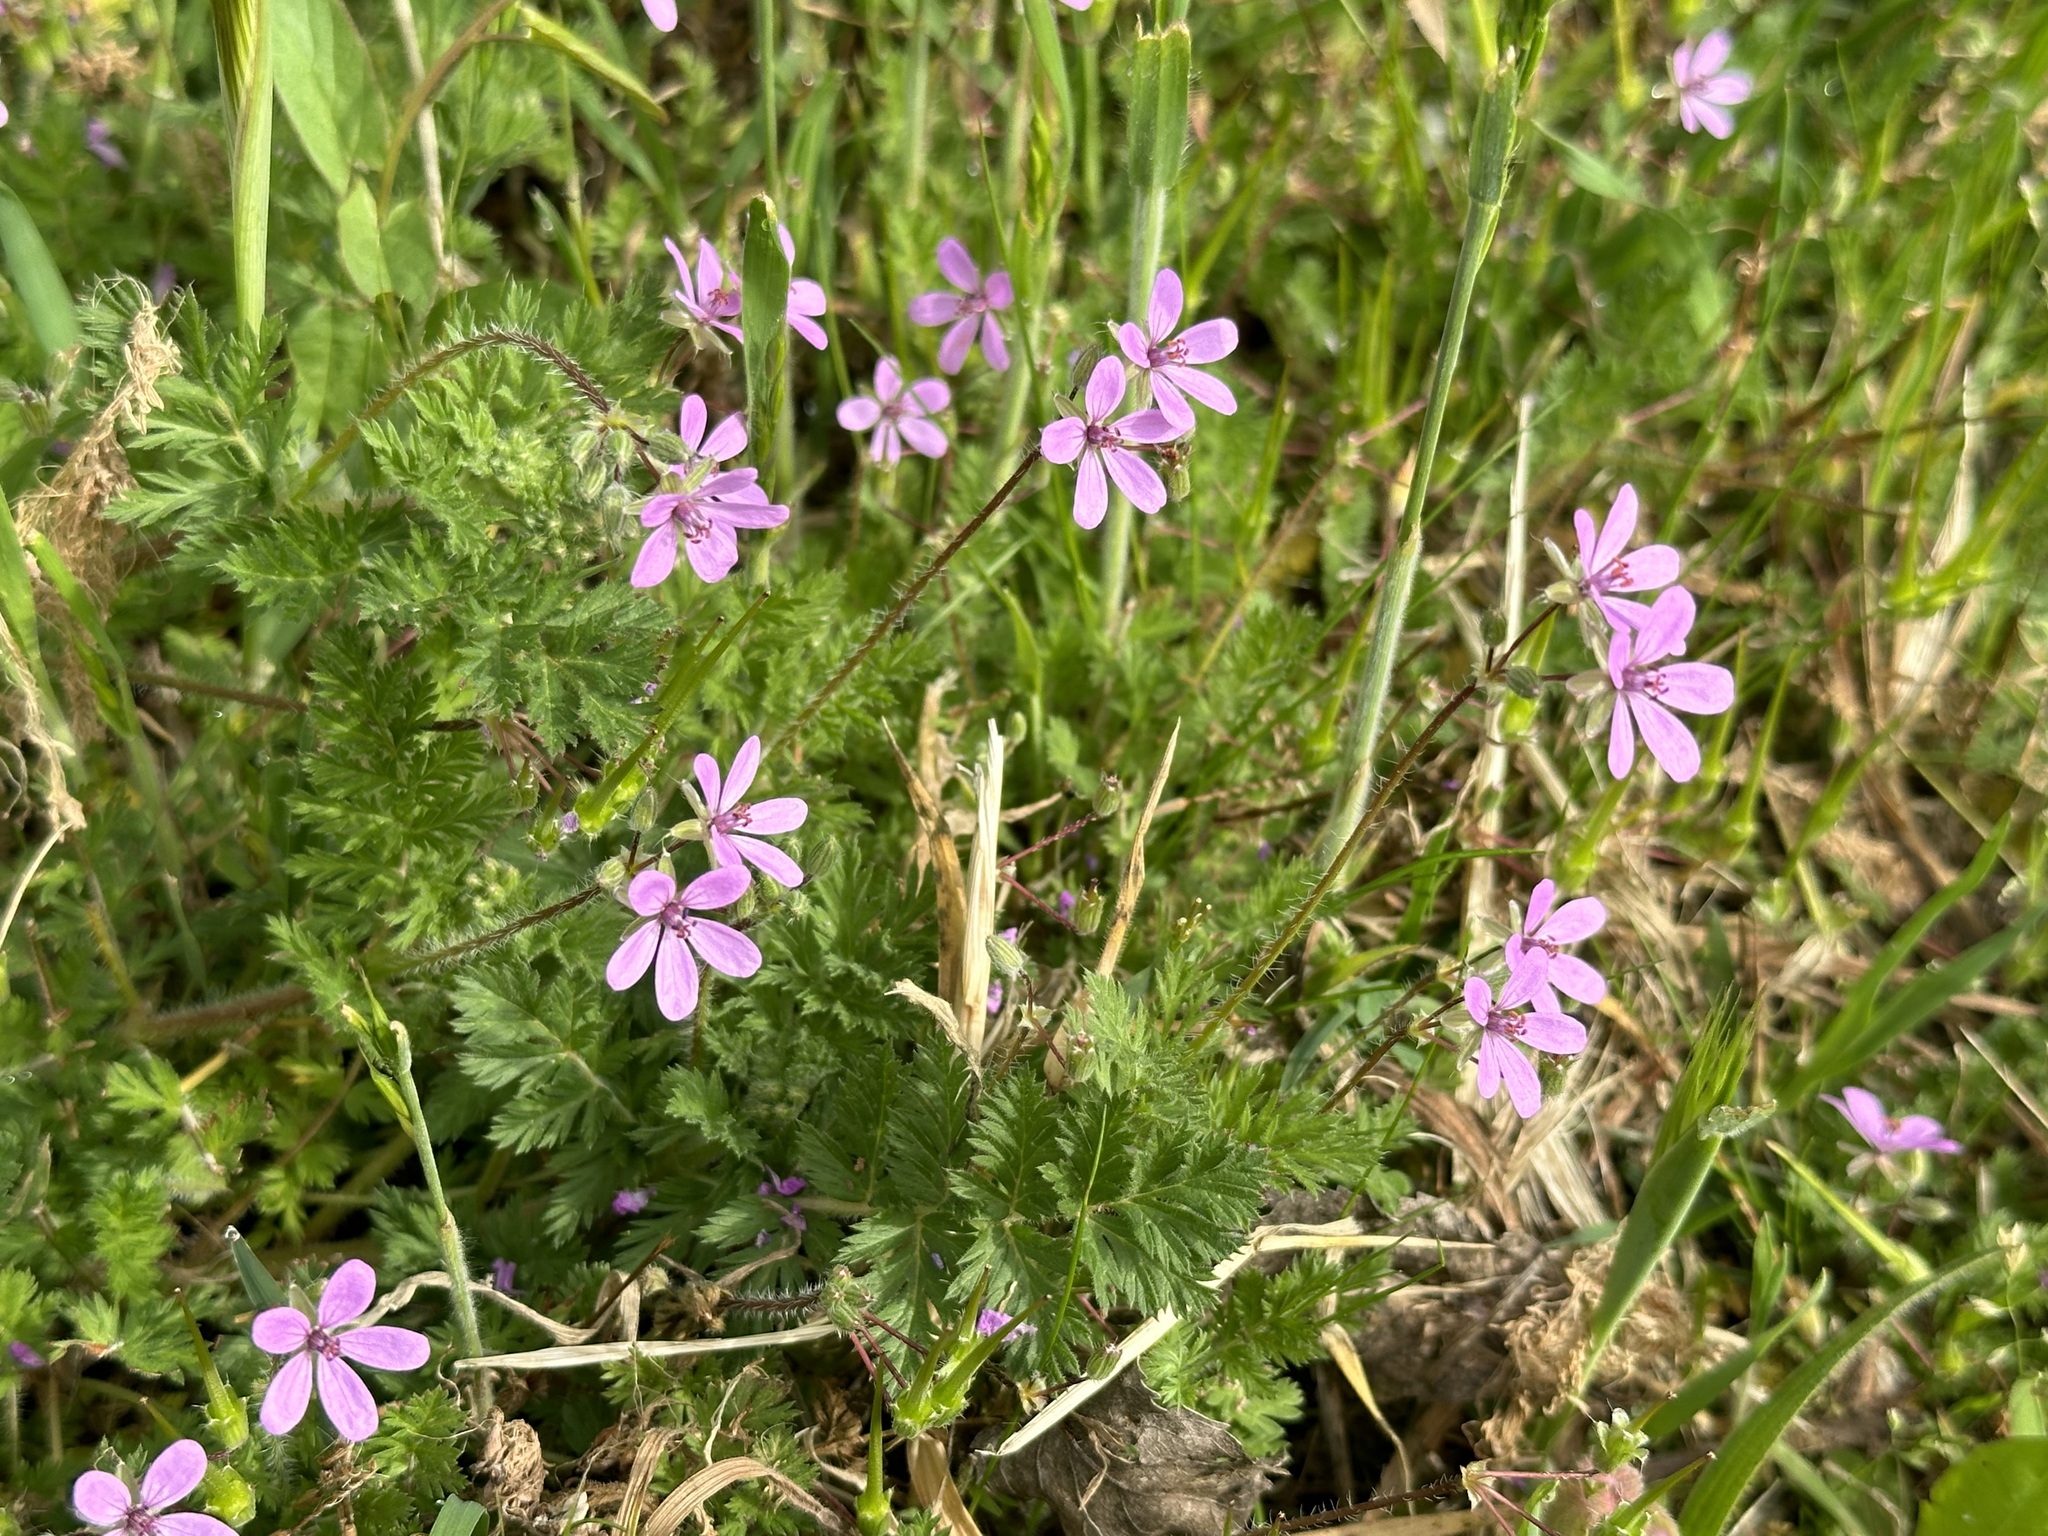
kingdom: Plantae
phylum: Tracheophyta
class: Magnoliopsida
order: Geraniales
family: Geraniaceae
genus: Erodium
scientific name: Erodium cicutarium
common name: Common stork's-bill
